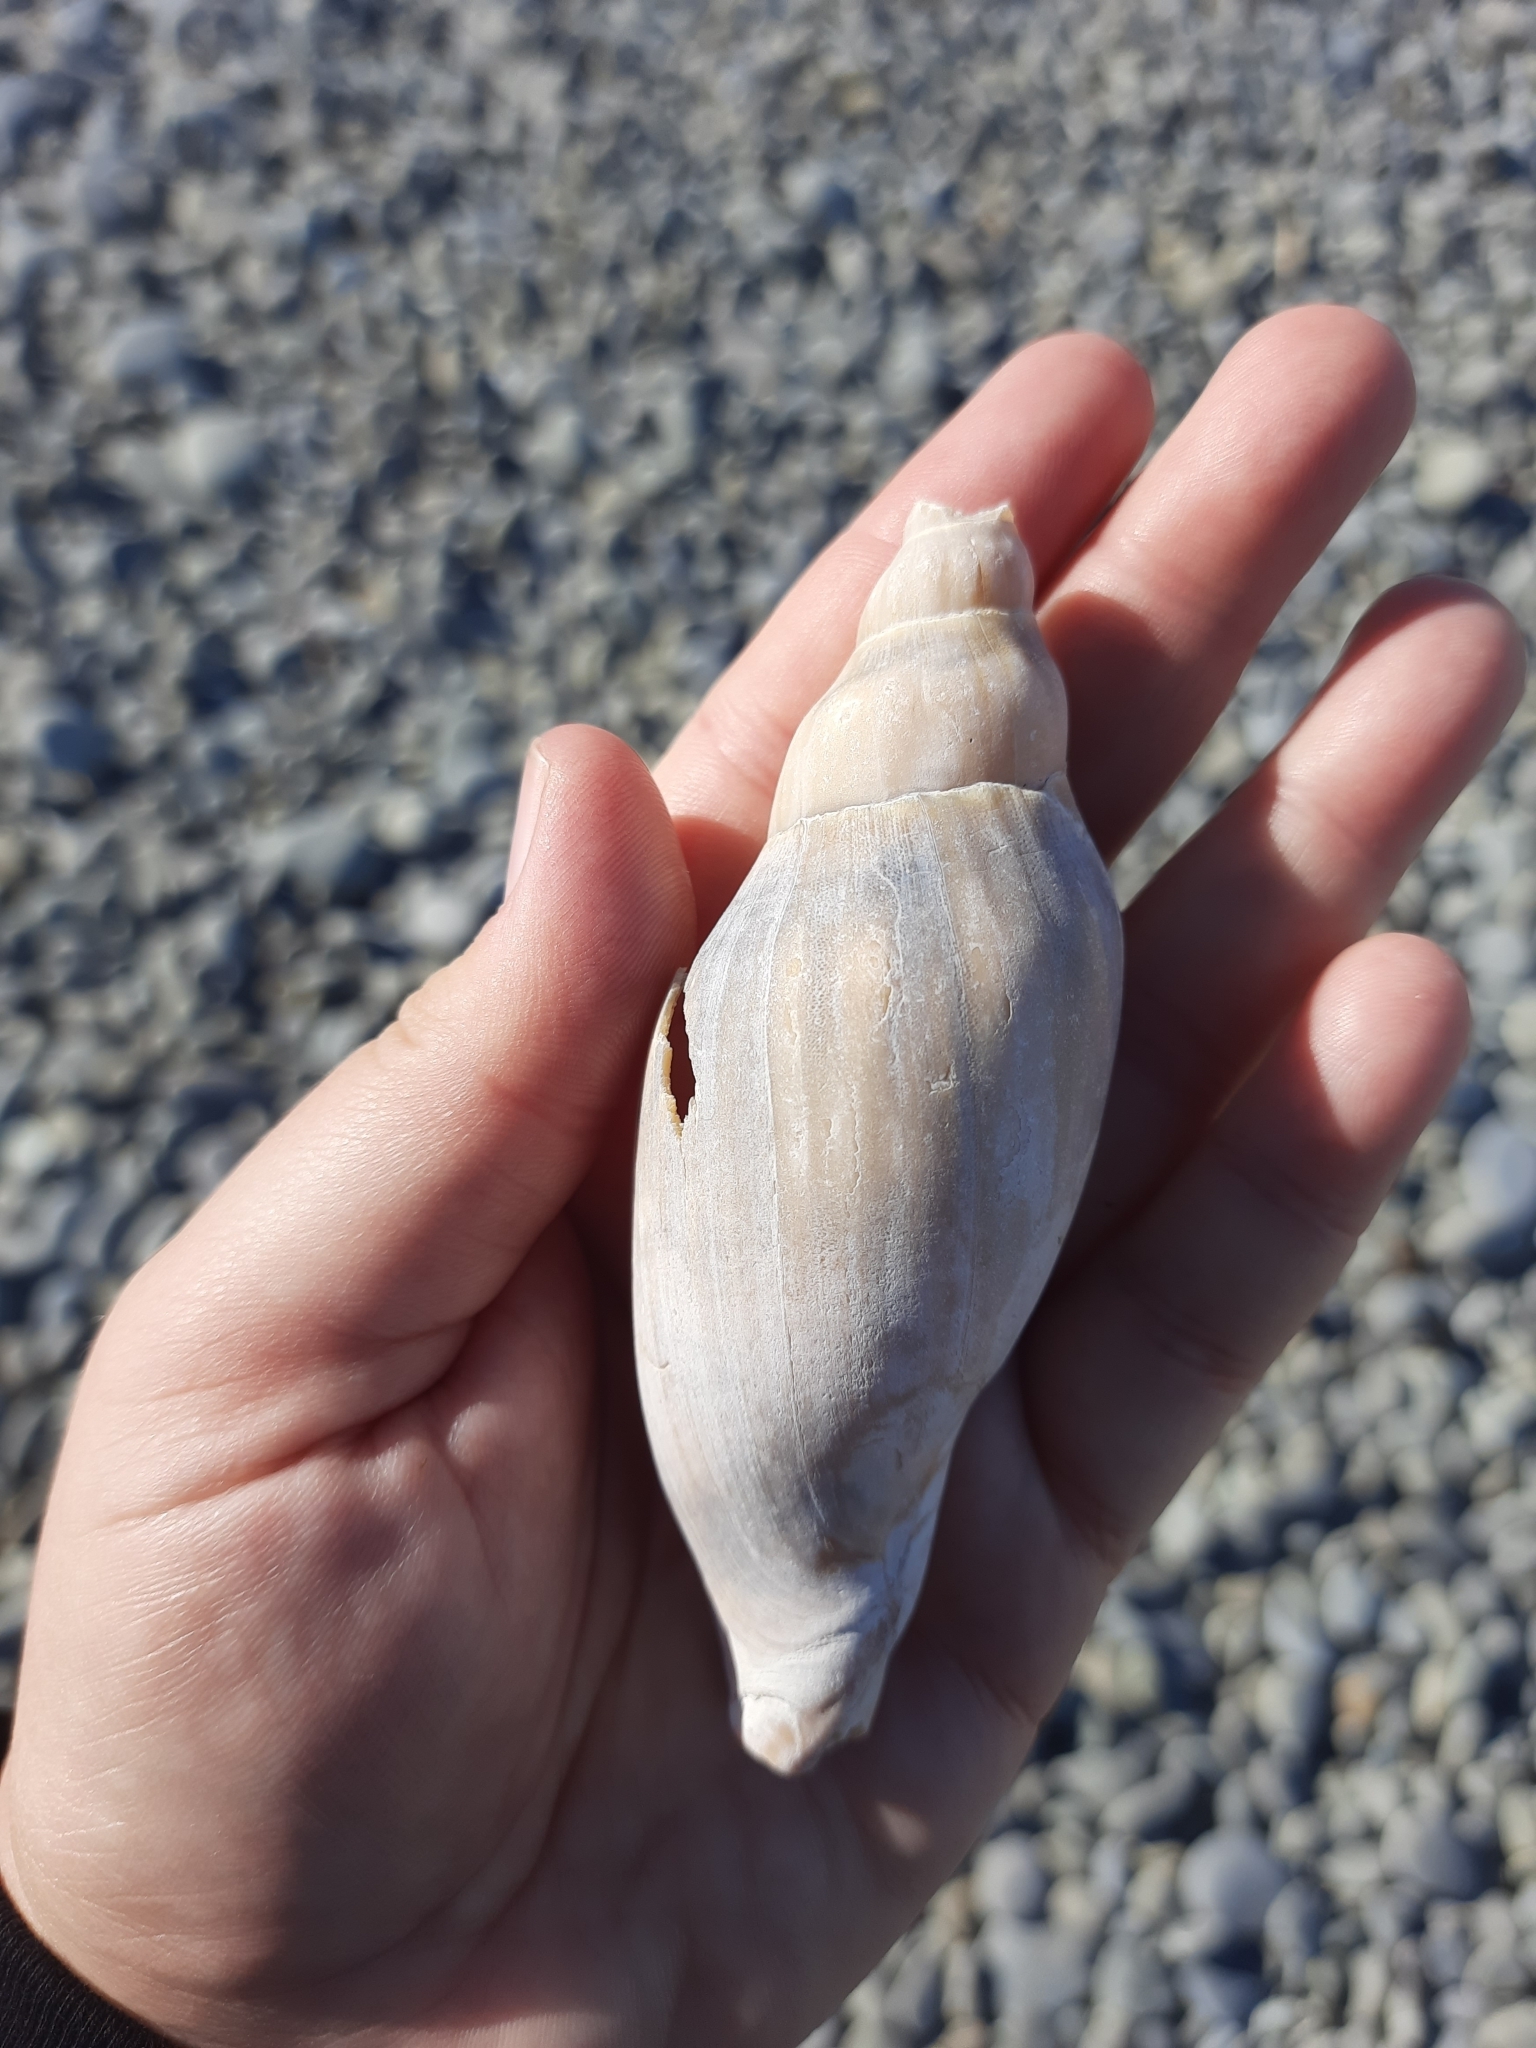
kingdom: Animalia
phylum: Mollusca
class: Gastropoda
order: Neogastropoda
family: Volutidae
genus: Alcithoe
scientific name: Alcithoe arabica
